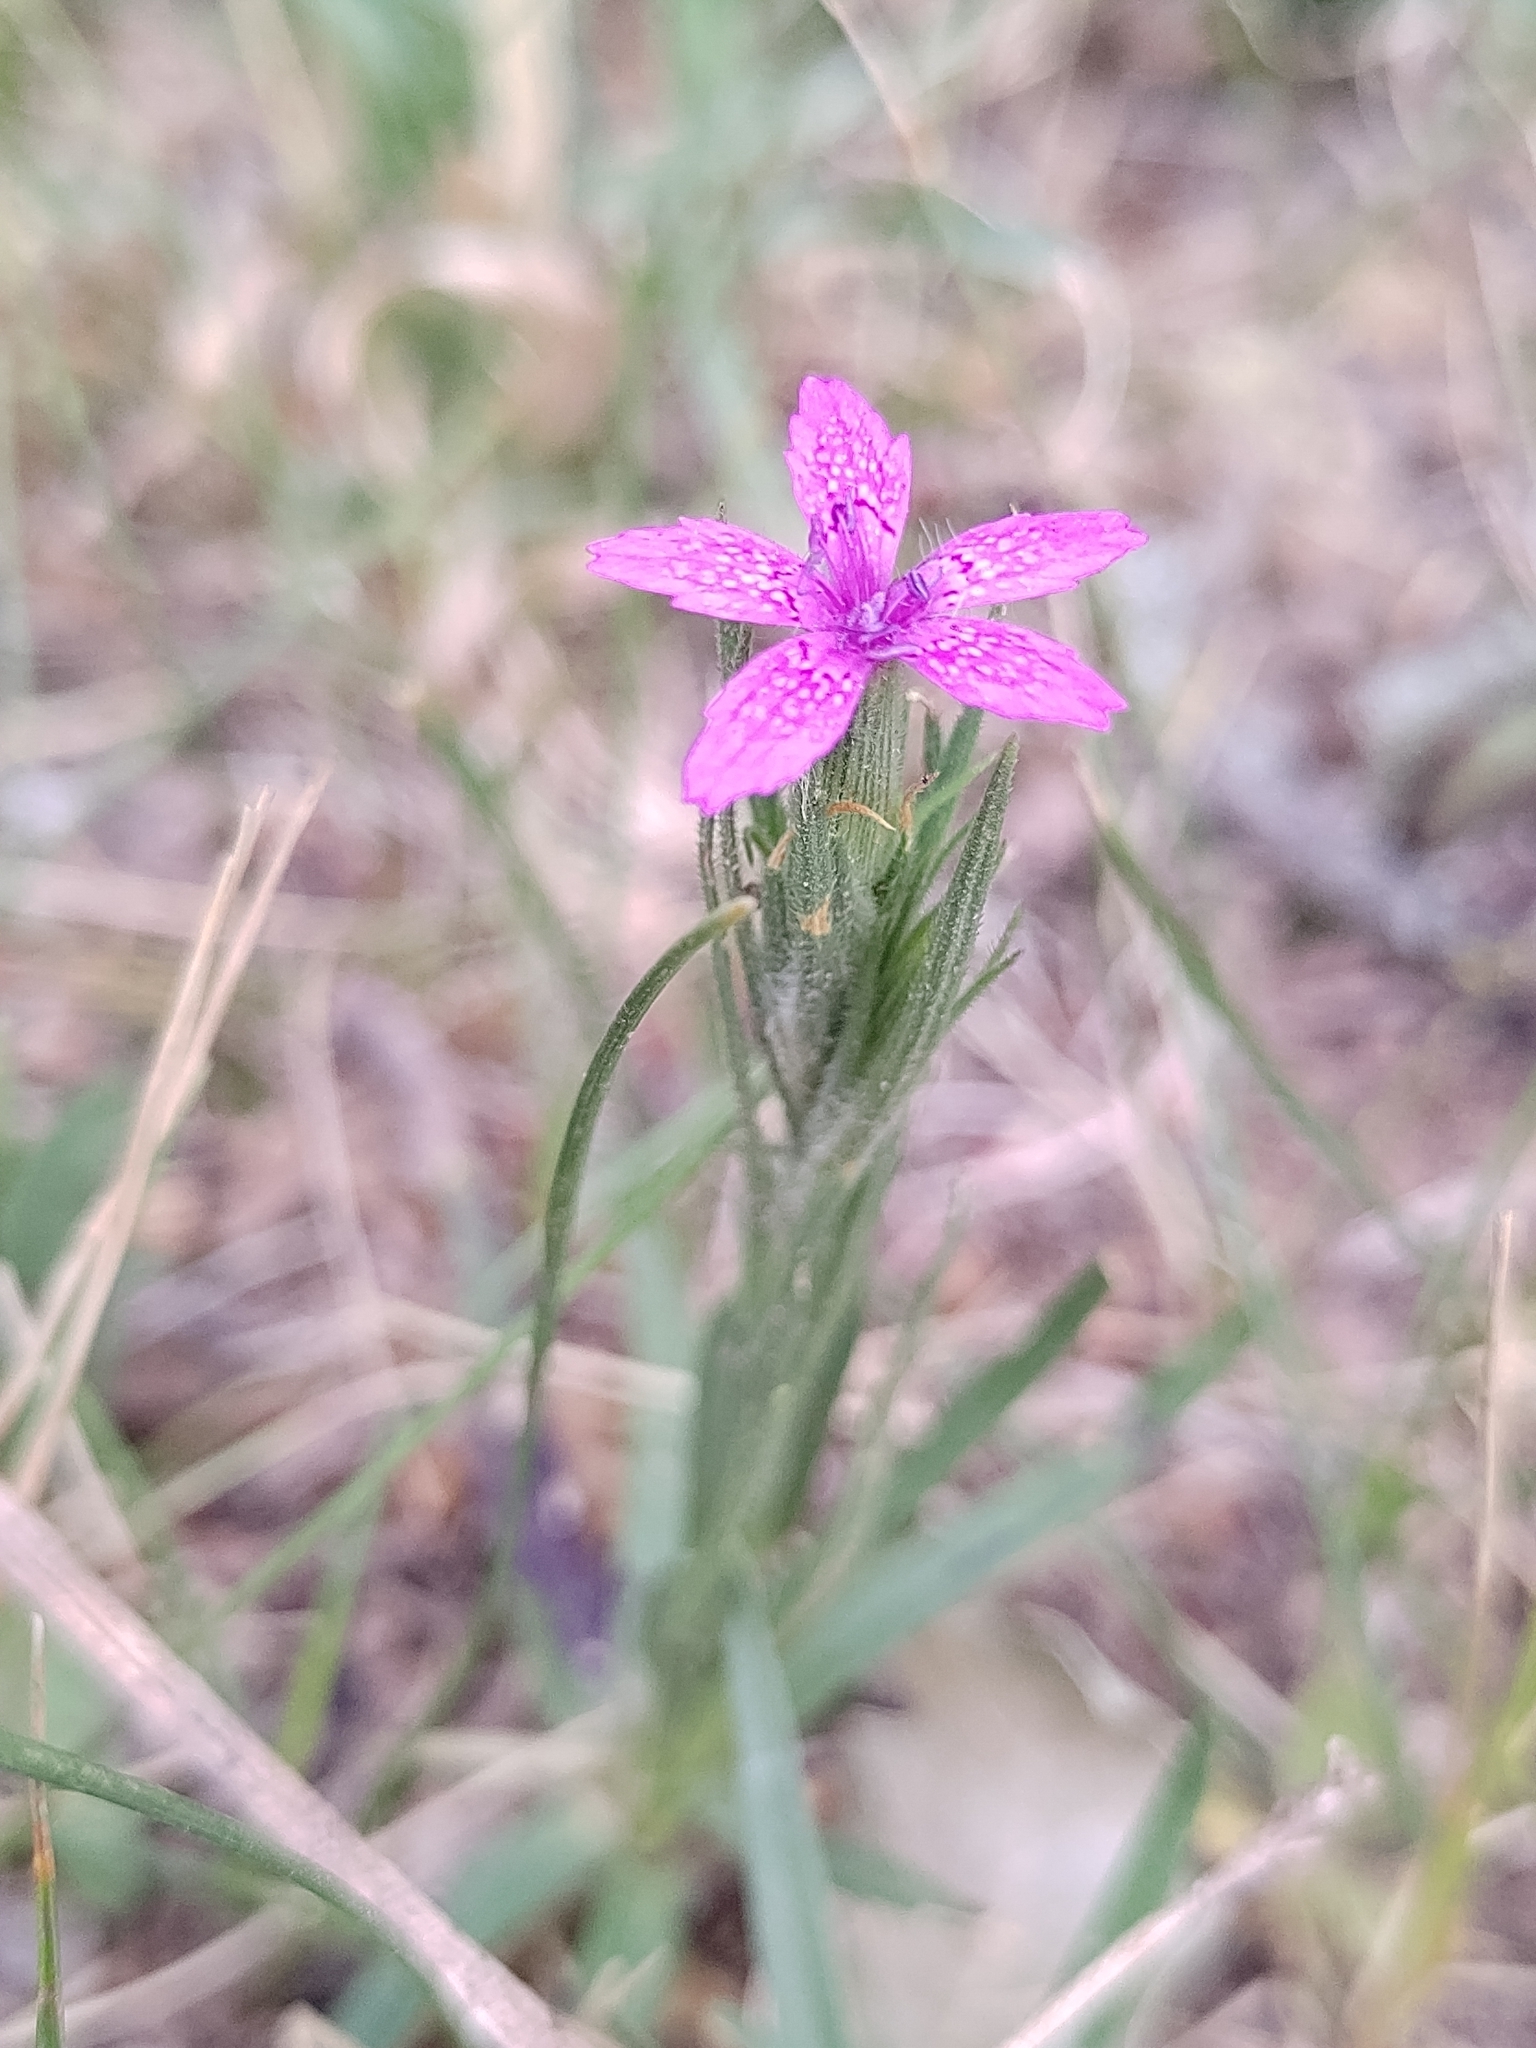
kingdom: Plantae
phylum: Tracheophyta
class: Magnoliopsida
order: Caryophyllales
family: Caryophyllaceae
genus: Dianthus
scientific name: Dianthus armeria
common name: Deptford pink
